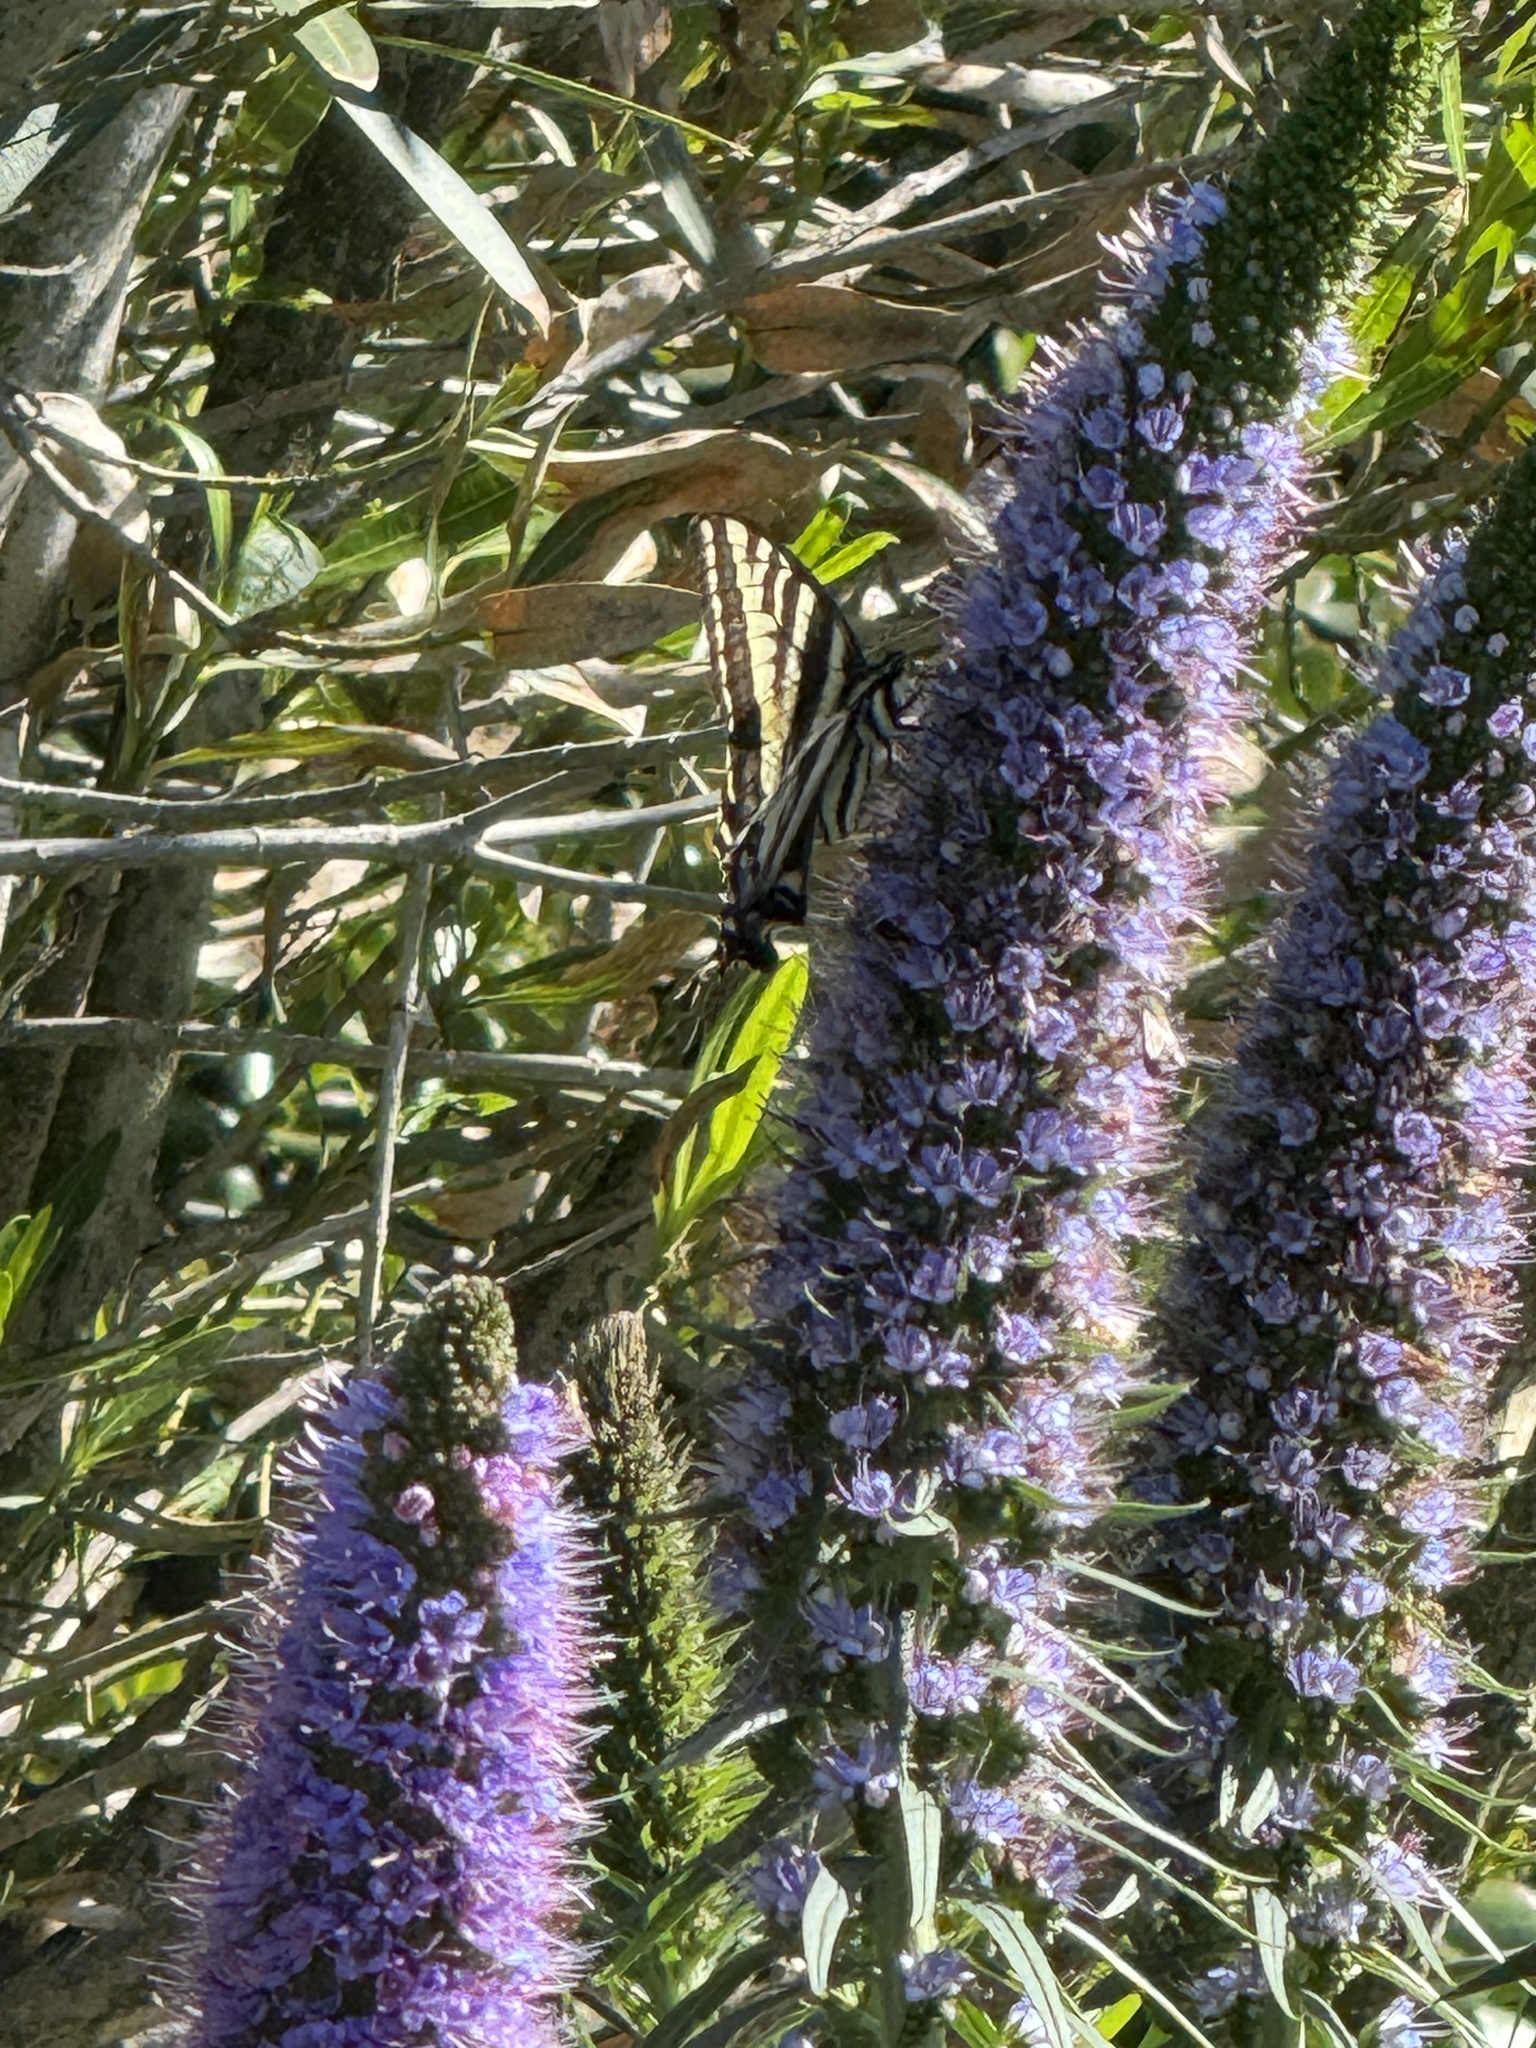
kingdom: Animalia
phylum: Arthropoda
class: Insecta
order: Lepidoptera
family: Papilionidae
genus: Papilio
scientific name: Papilio eurymedon
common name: Pale tiger swallowtail
